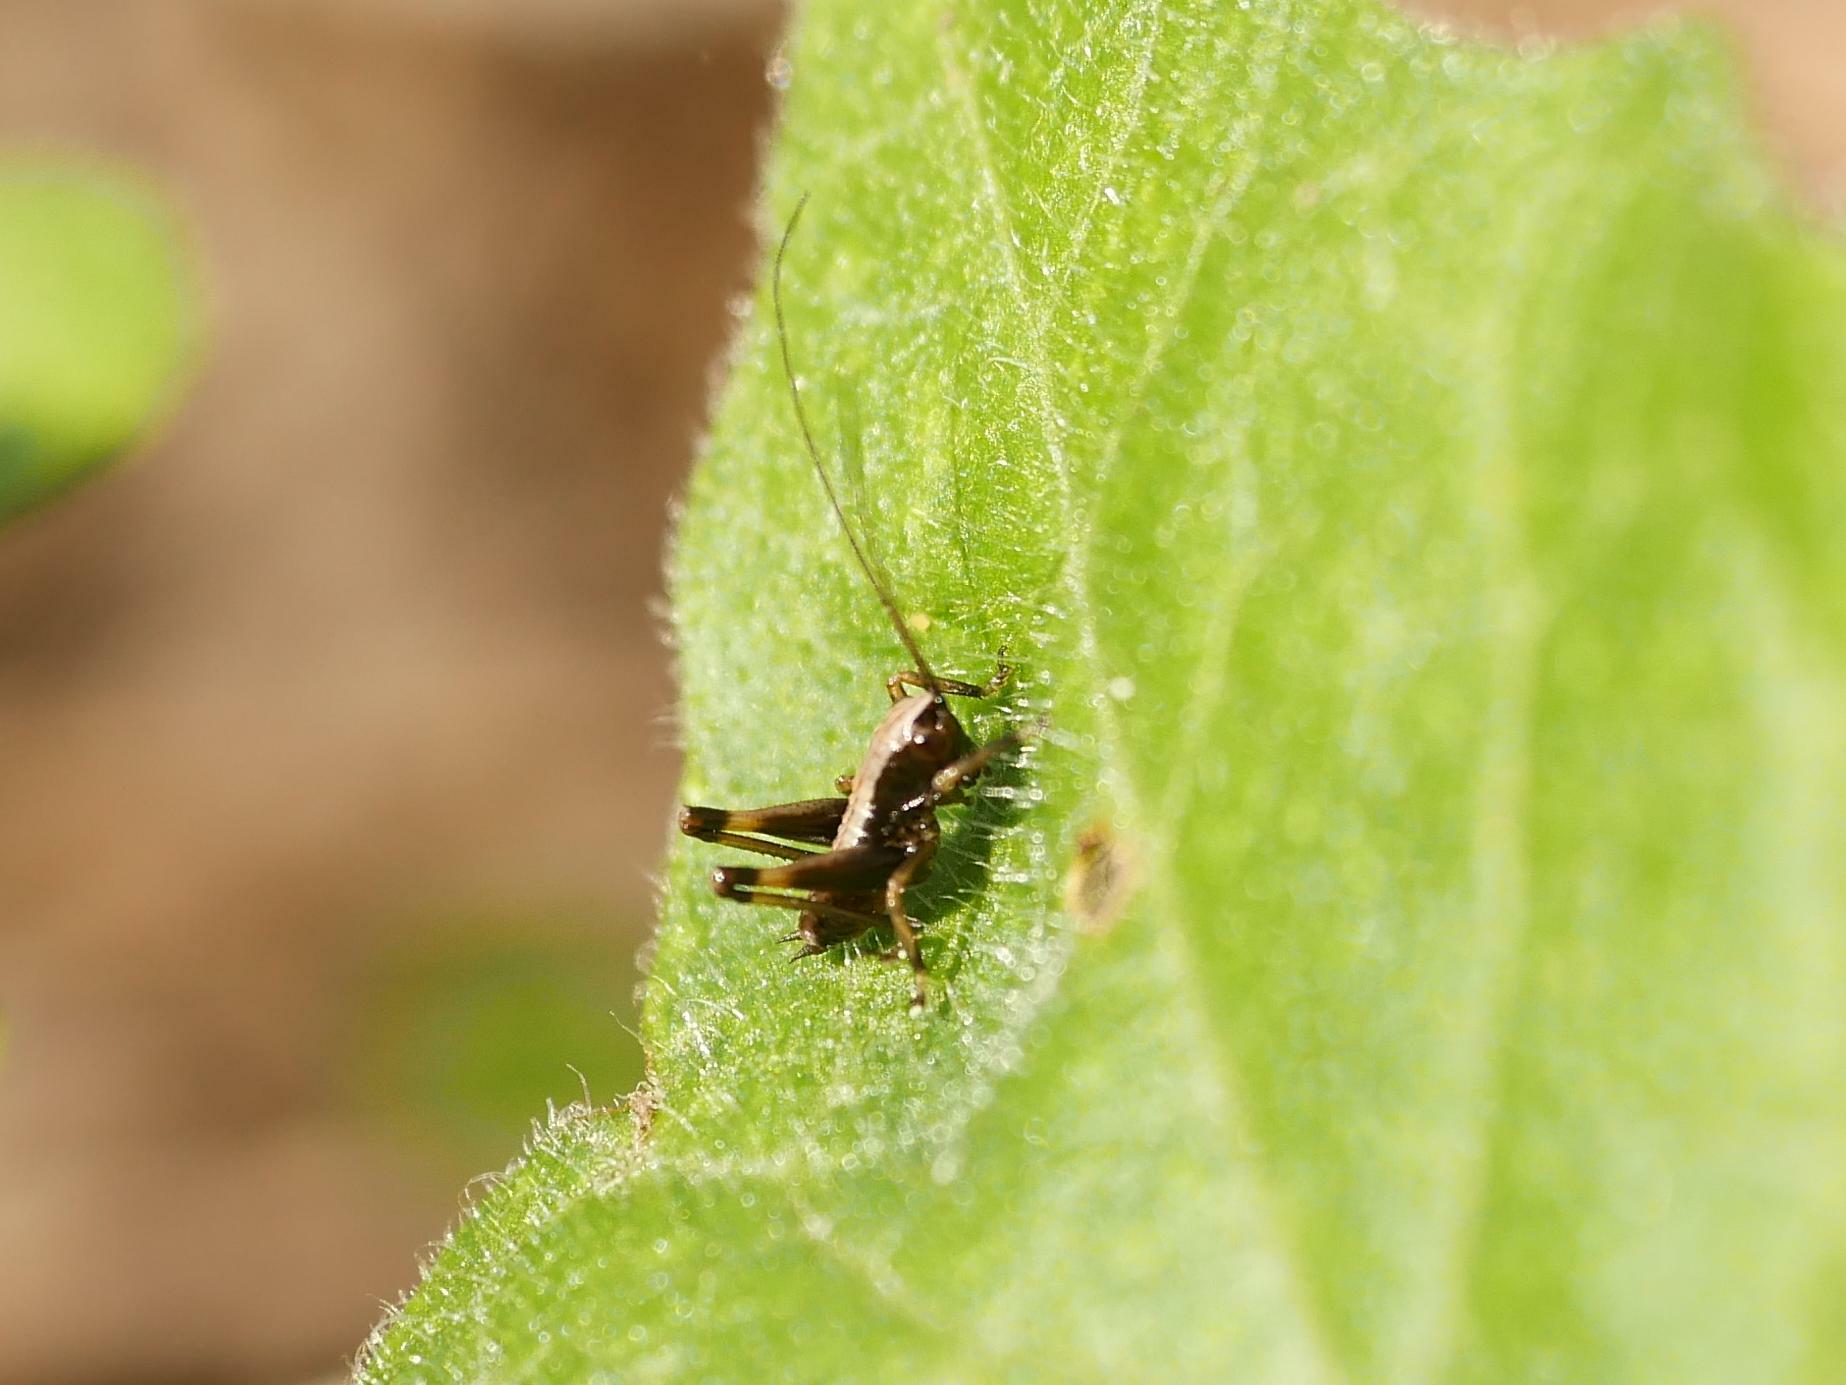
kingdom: Animalia
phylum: Arthropoda
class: Insecta
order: Orthoptera
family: Tettigoniidae
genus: Pholidoptera
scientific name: Pholidoptera griseoaptera
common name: Dark bush-cricket
